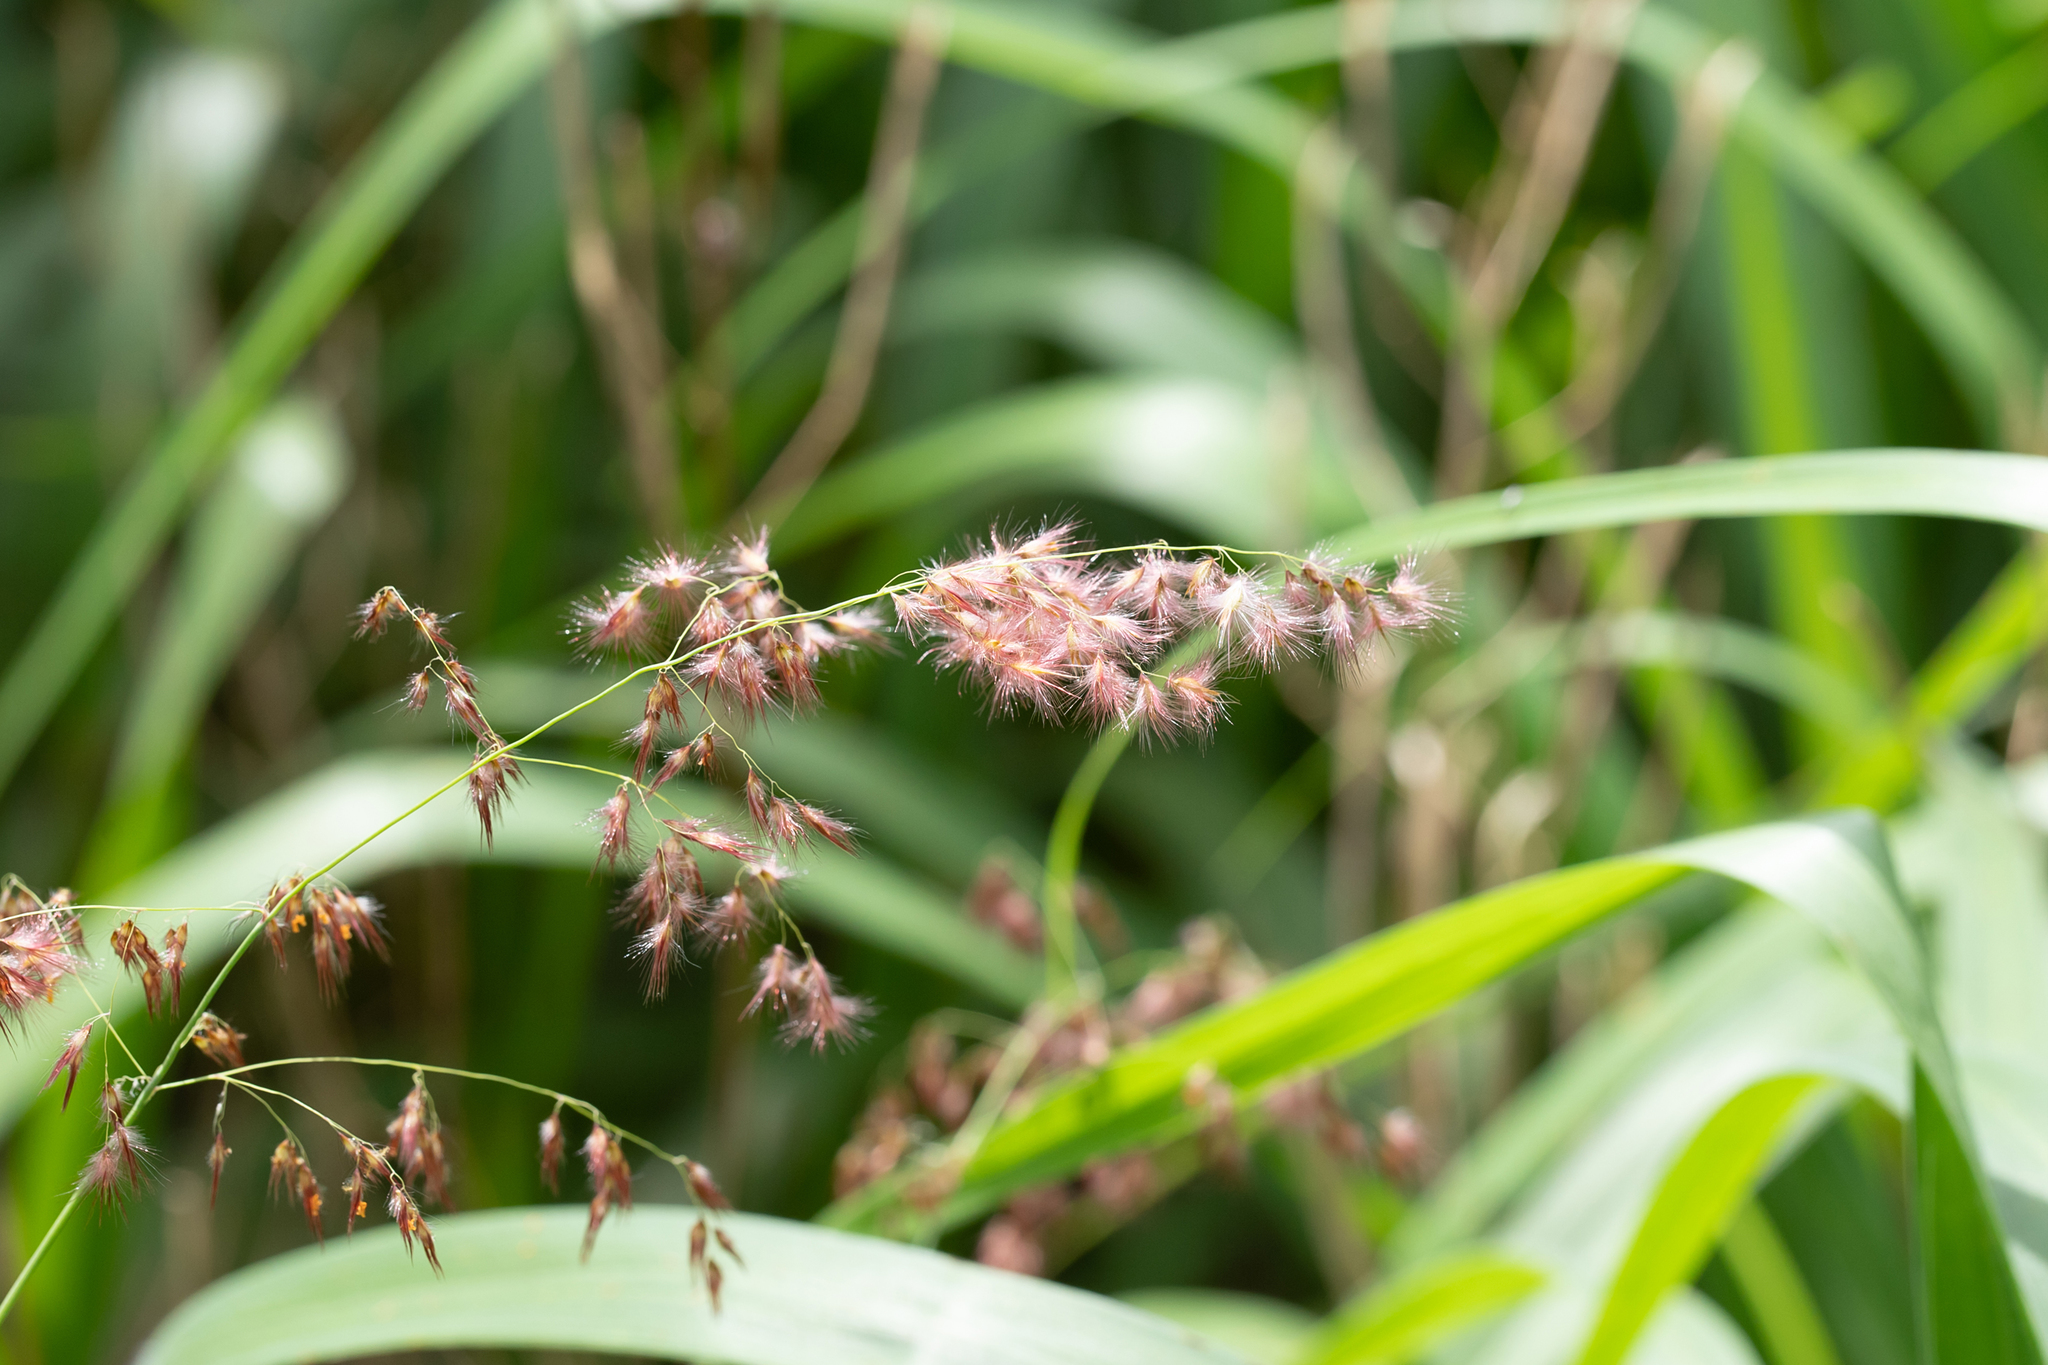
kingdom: Plantae
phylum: Tracheophyta
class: Liliopsida
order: Poales
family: Poaceae
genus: Melinis
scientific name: Melinis repens
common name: Rose natal grass
